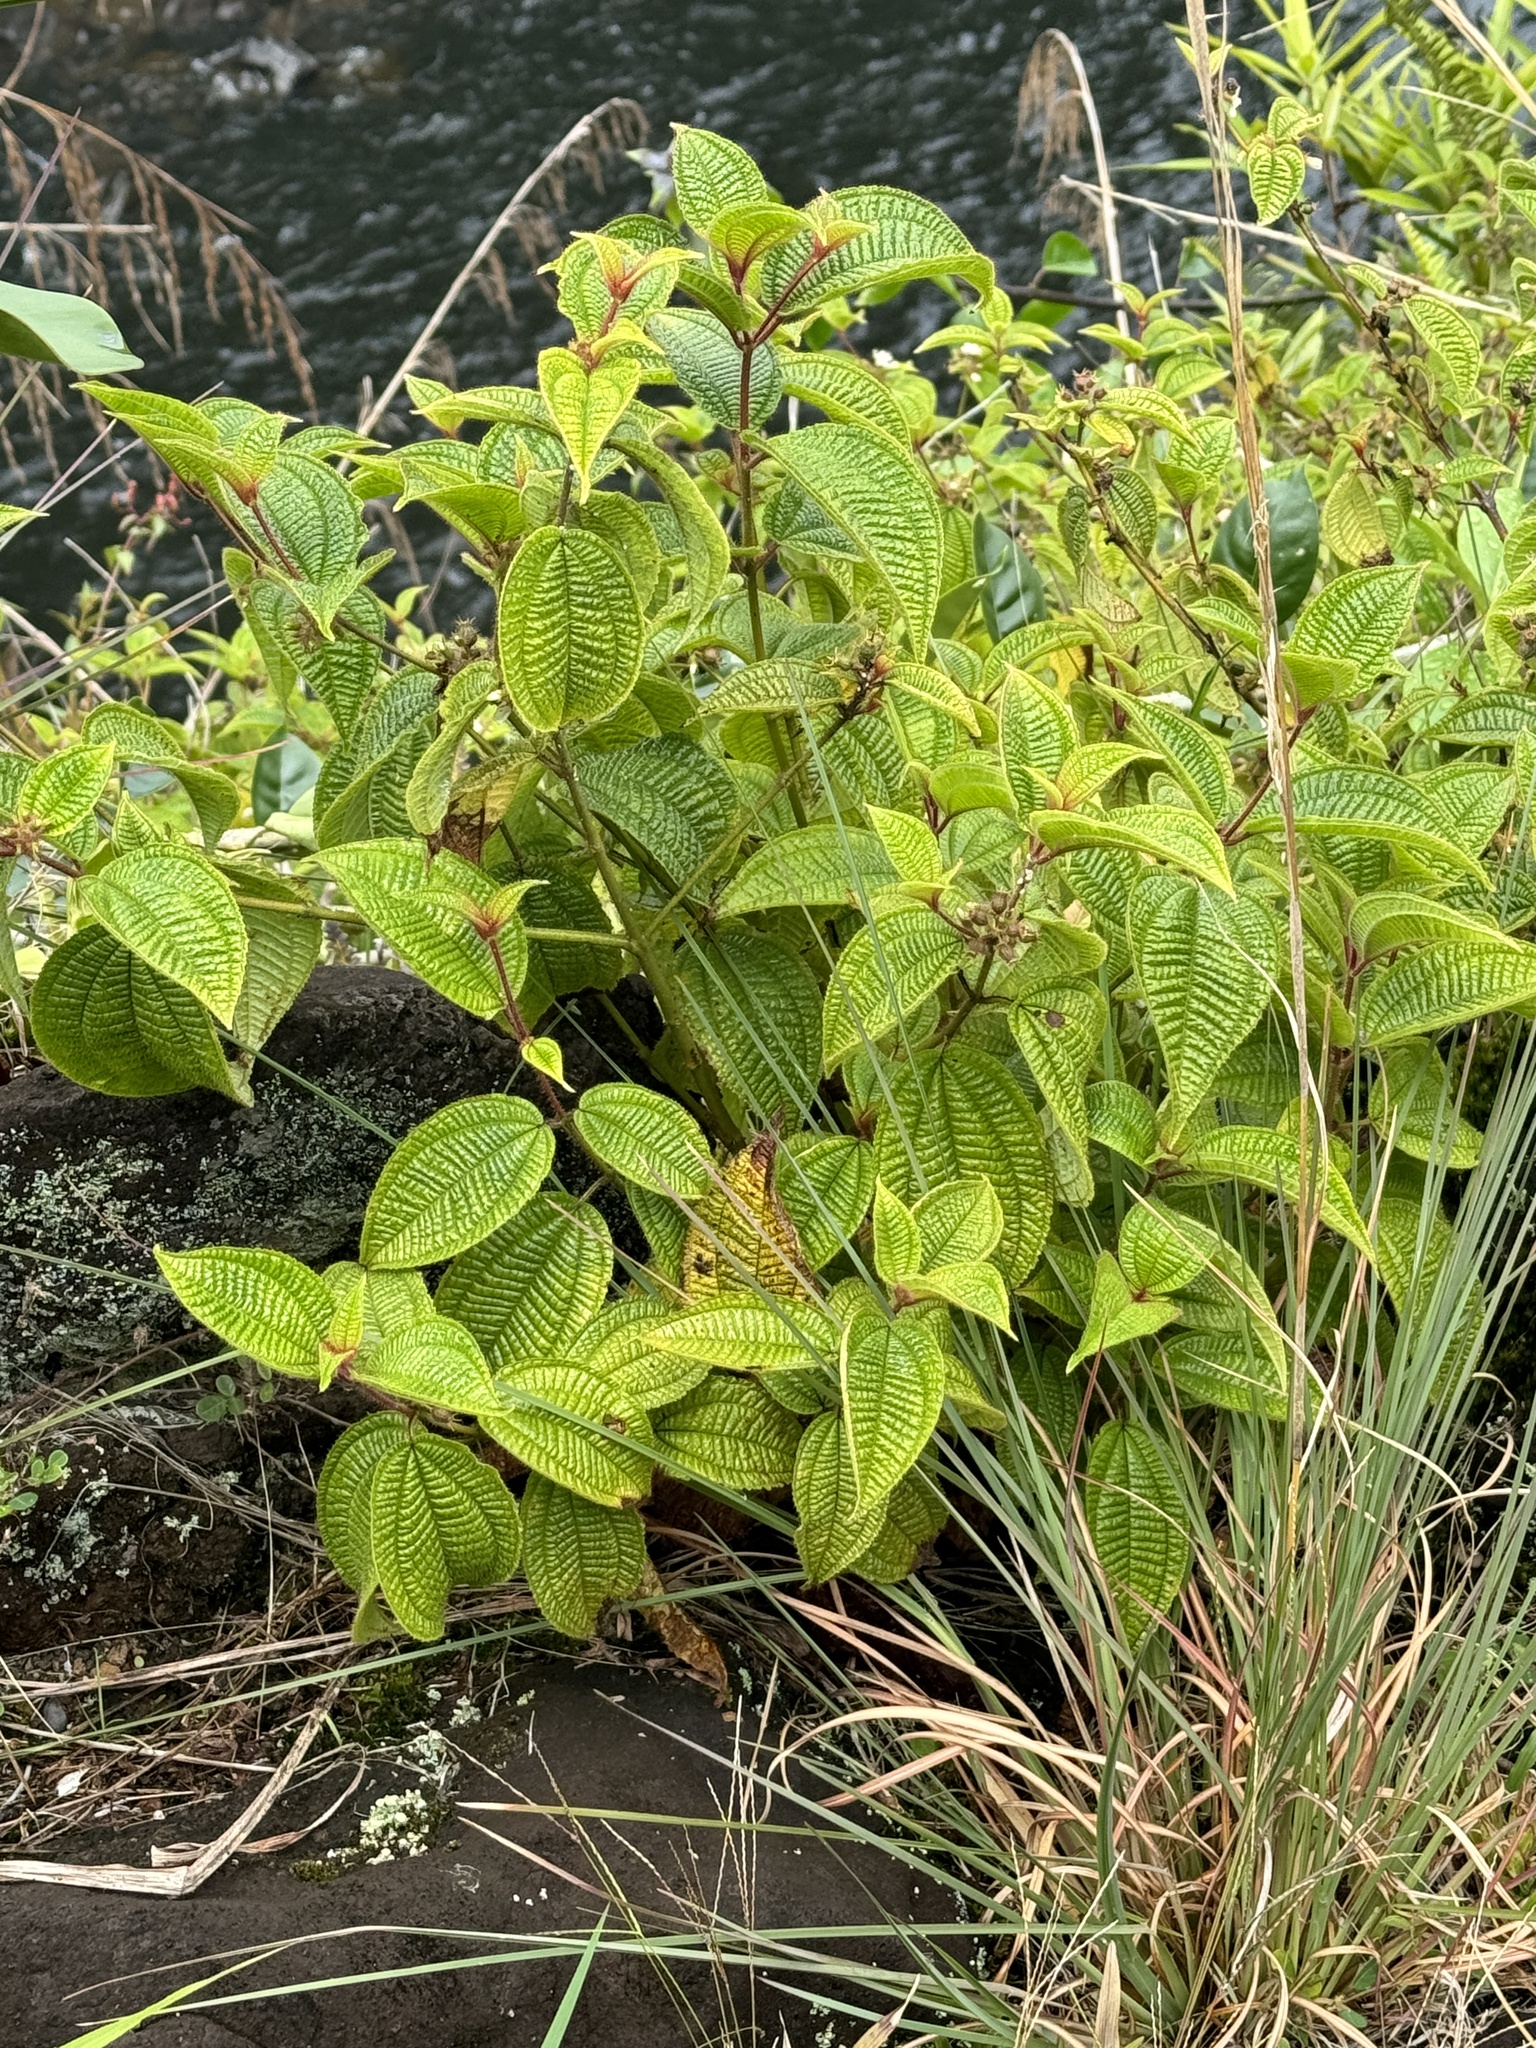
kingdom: Plantae
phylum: Tracheophyta
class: Magnoliopsida
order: Myrtales
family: Melastomataceae
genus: Miconia
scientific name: Miconia crenata
